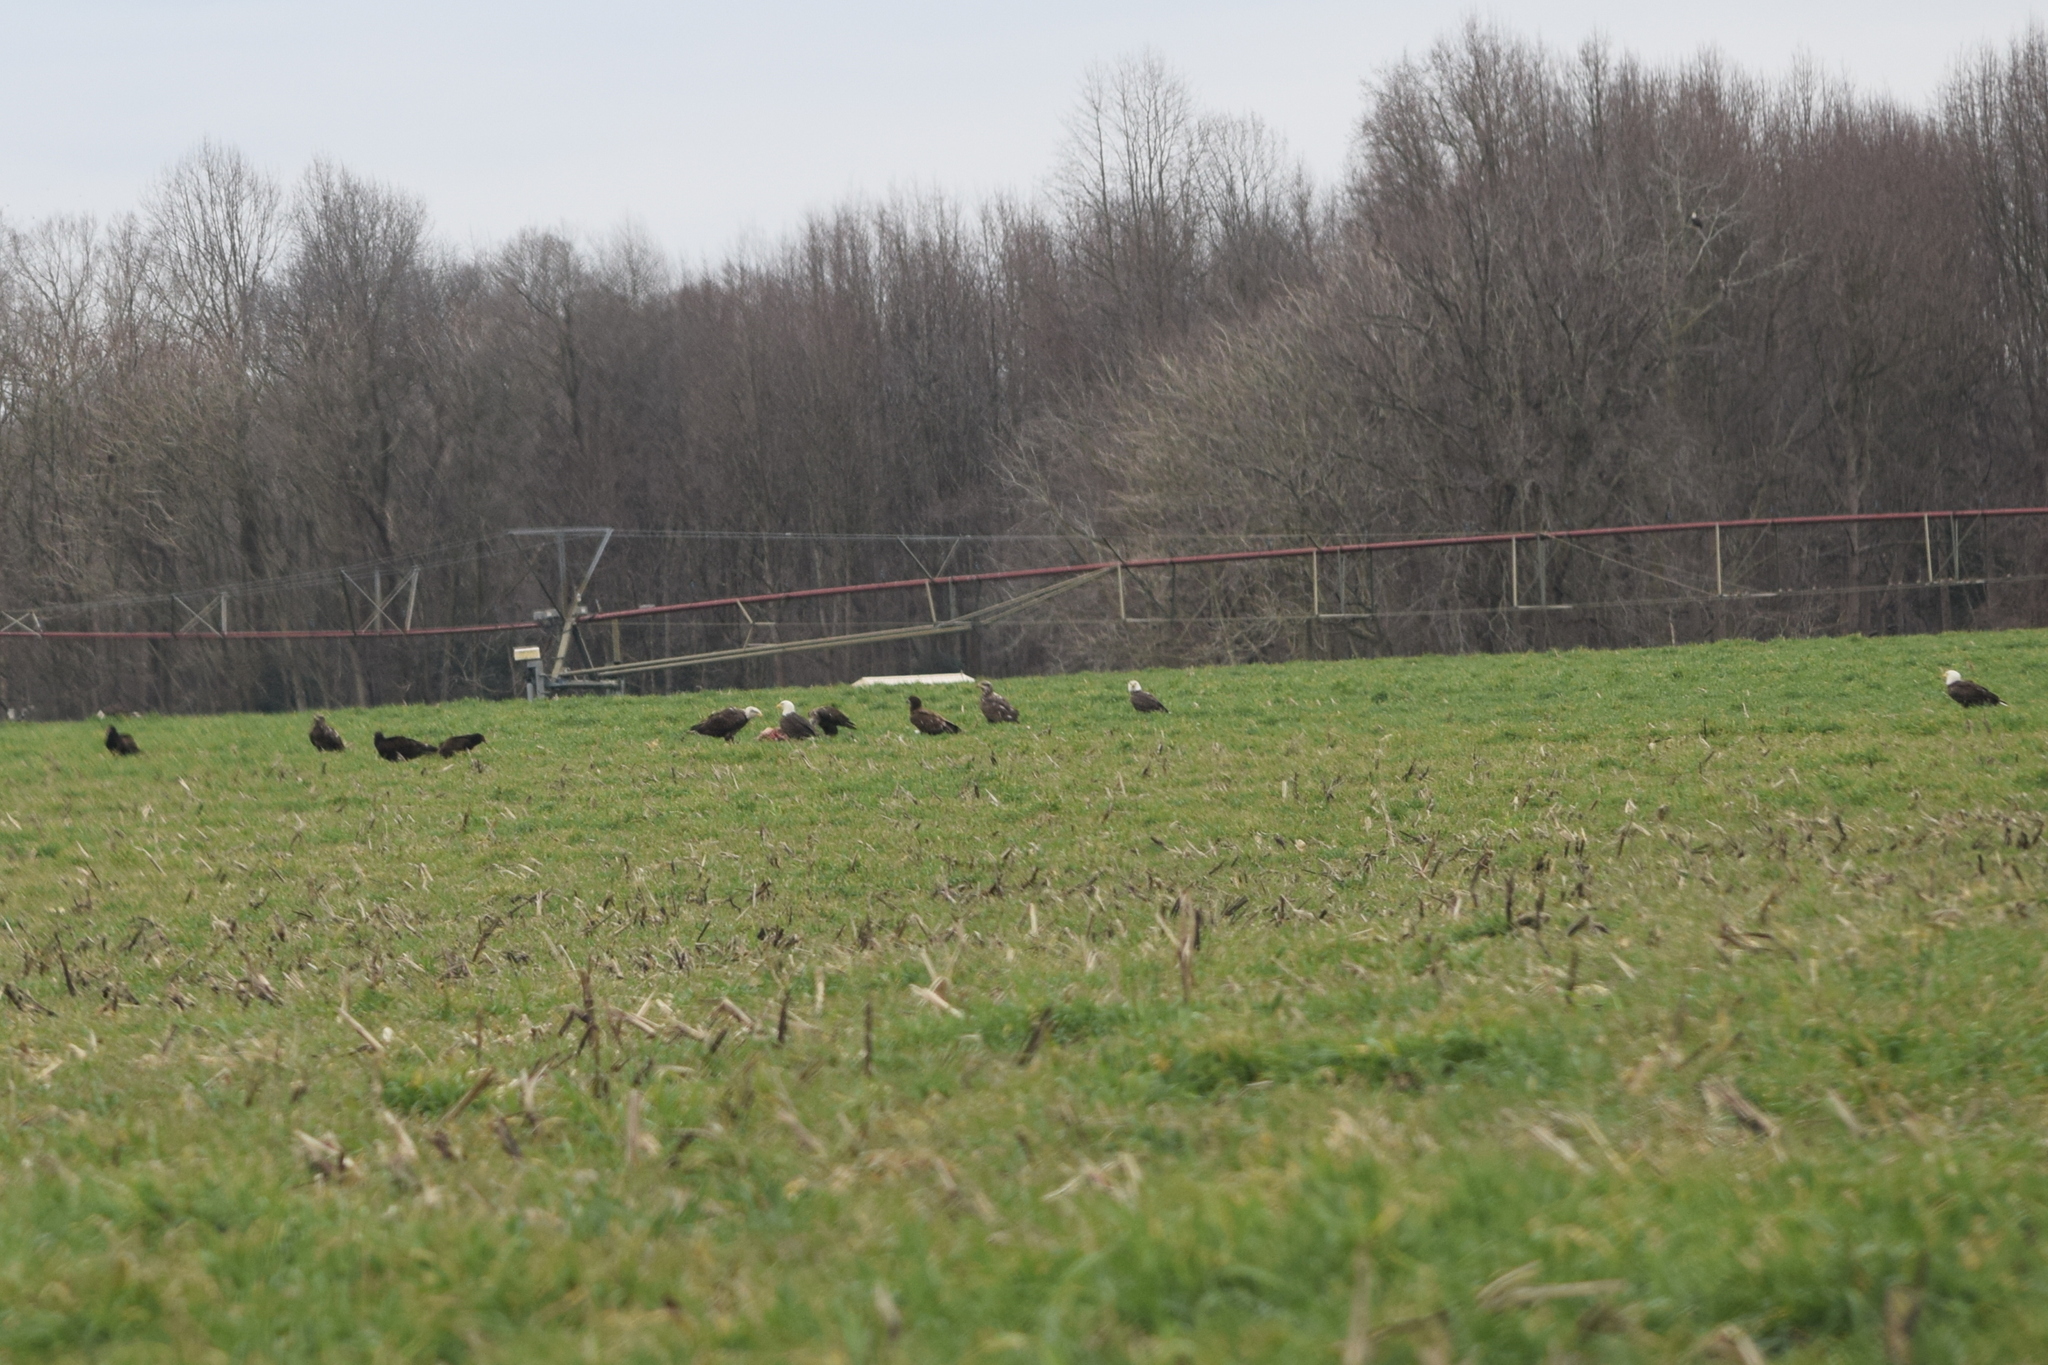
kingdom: Animalia
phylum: Chordata
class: Aves
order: Accipitriformes
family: Accipitridae
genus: Haliaeetus
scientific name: Haliaeetus leucocephalus
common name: Bald eagle
